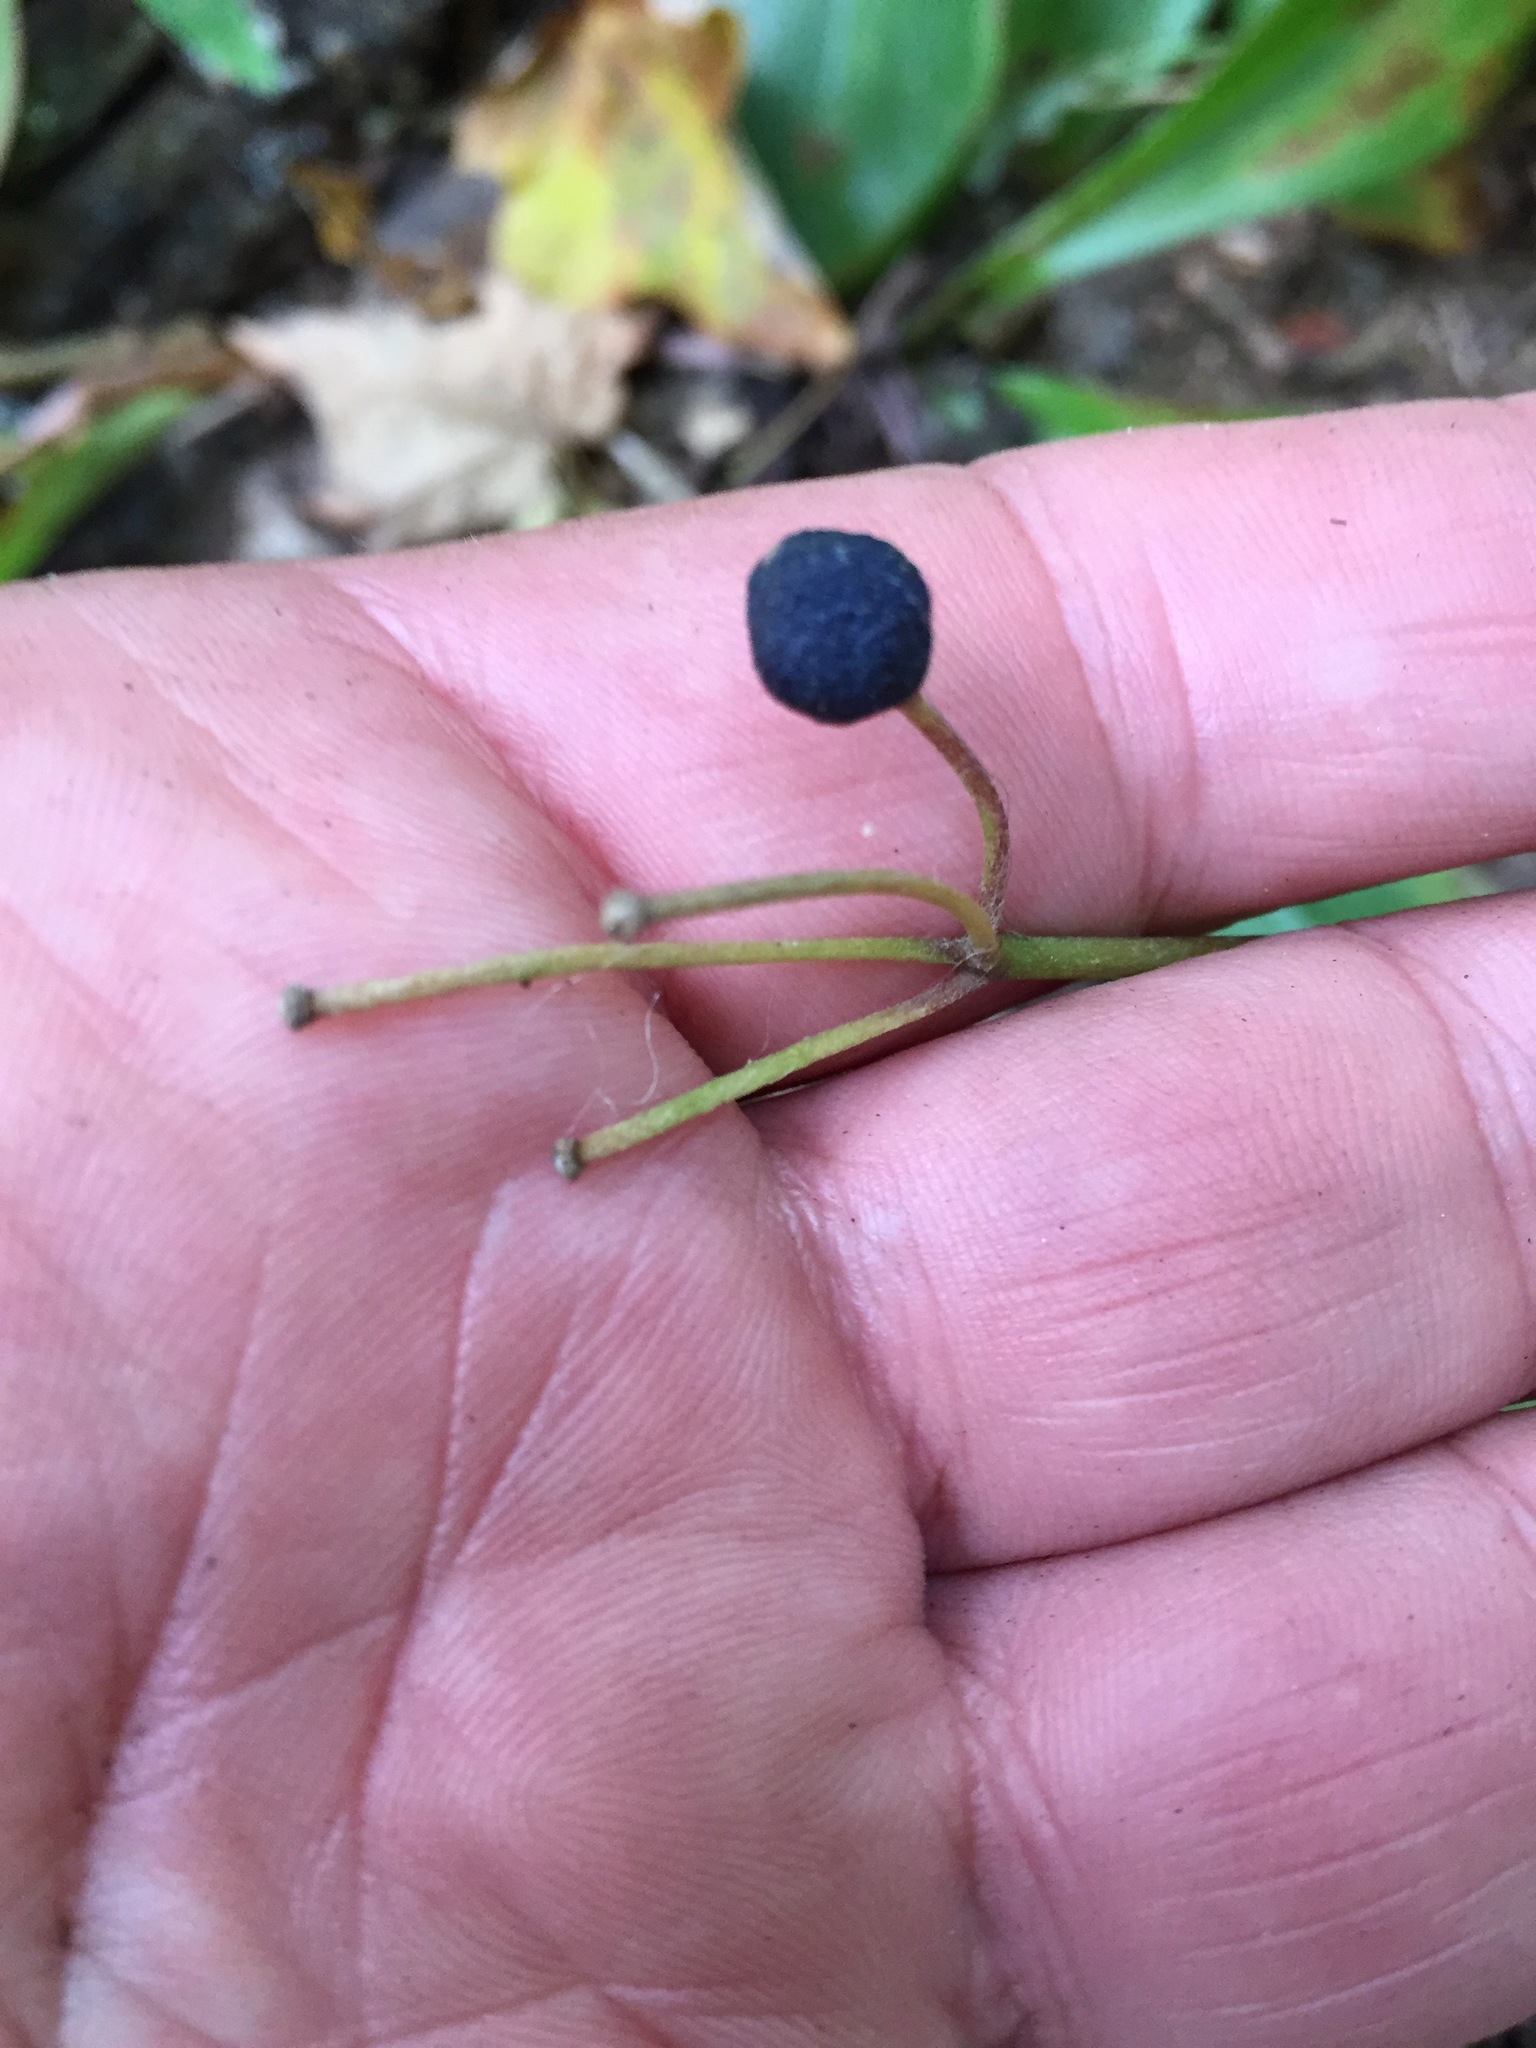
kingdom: Plantae
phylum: Tracheophyta
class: Liliopsida
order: Liliales
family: Liliaceae
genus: Clintonia
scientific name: Clintonia borealis
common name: Yellow clintonia
